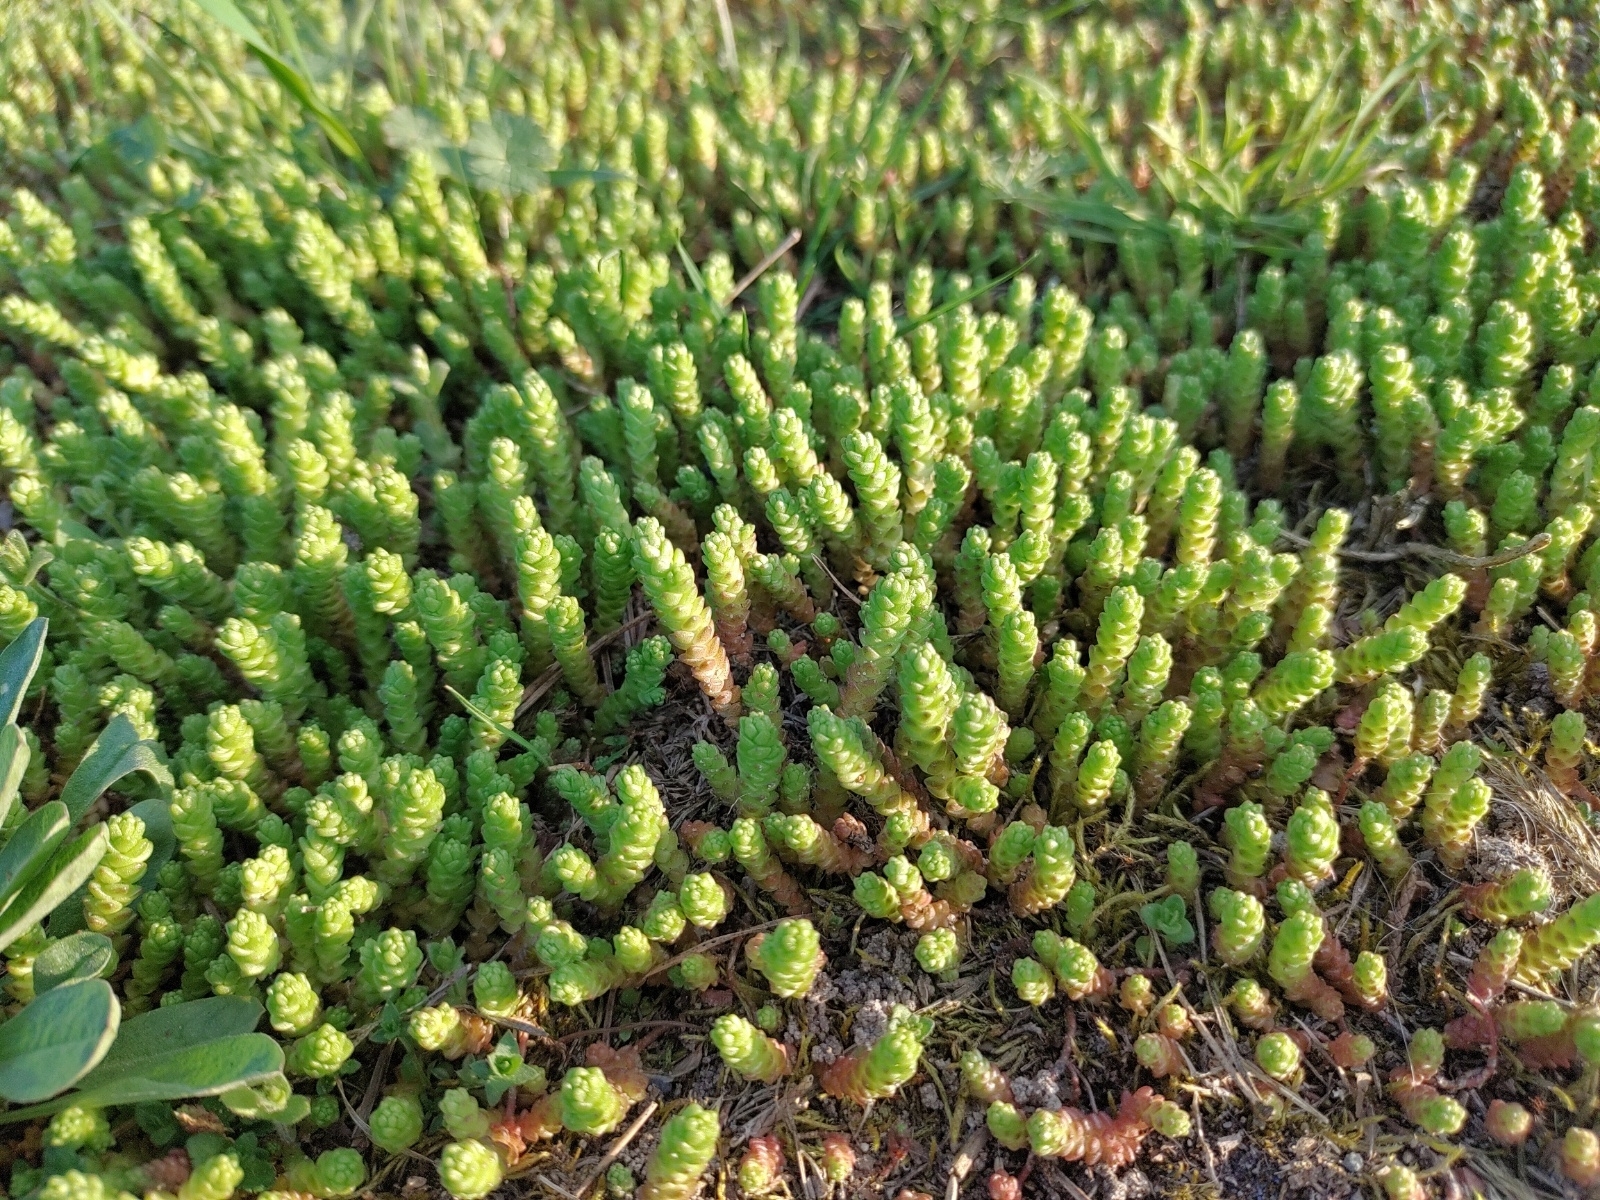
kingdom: Plantae
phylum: Tracheophyta
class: Magnoliopsida
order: Saxifragales
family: Crassulaceae
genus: Sedum
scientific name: Sedum acre
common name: Biting stonecrop
